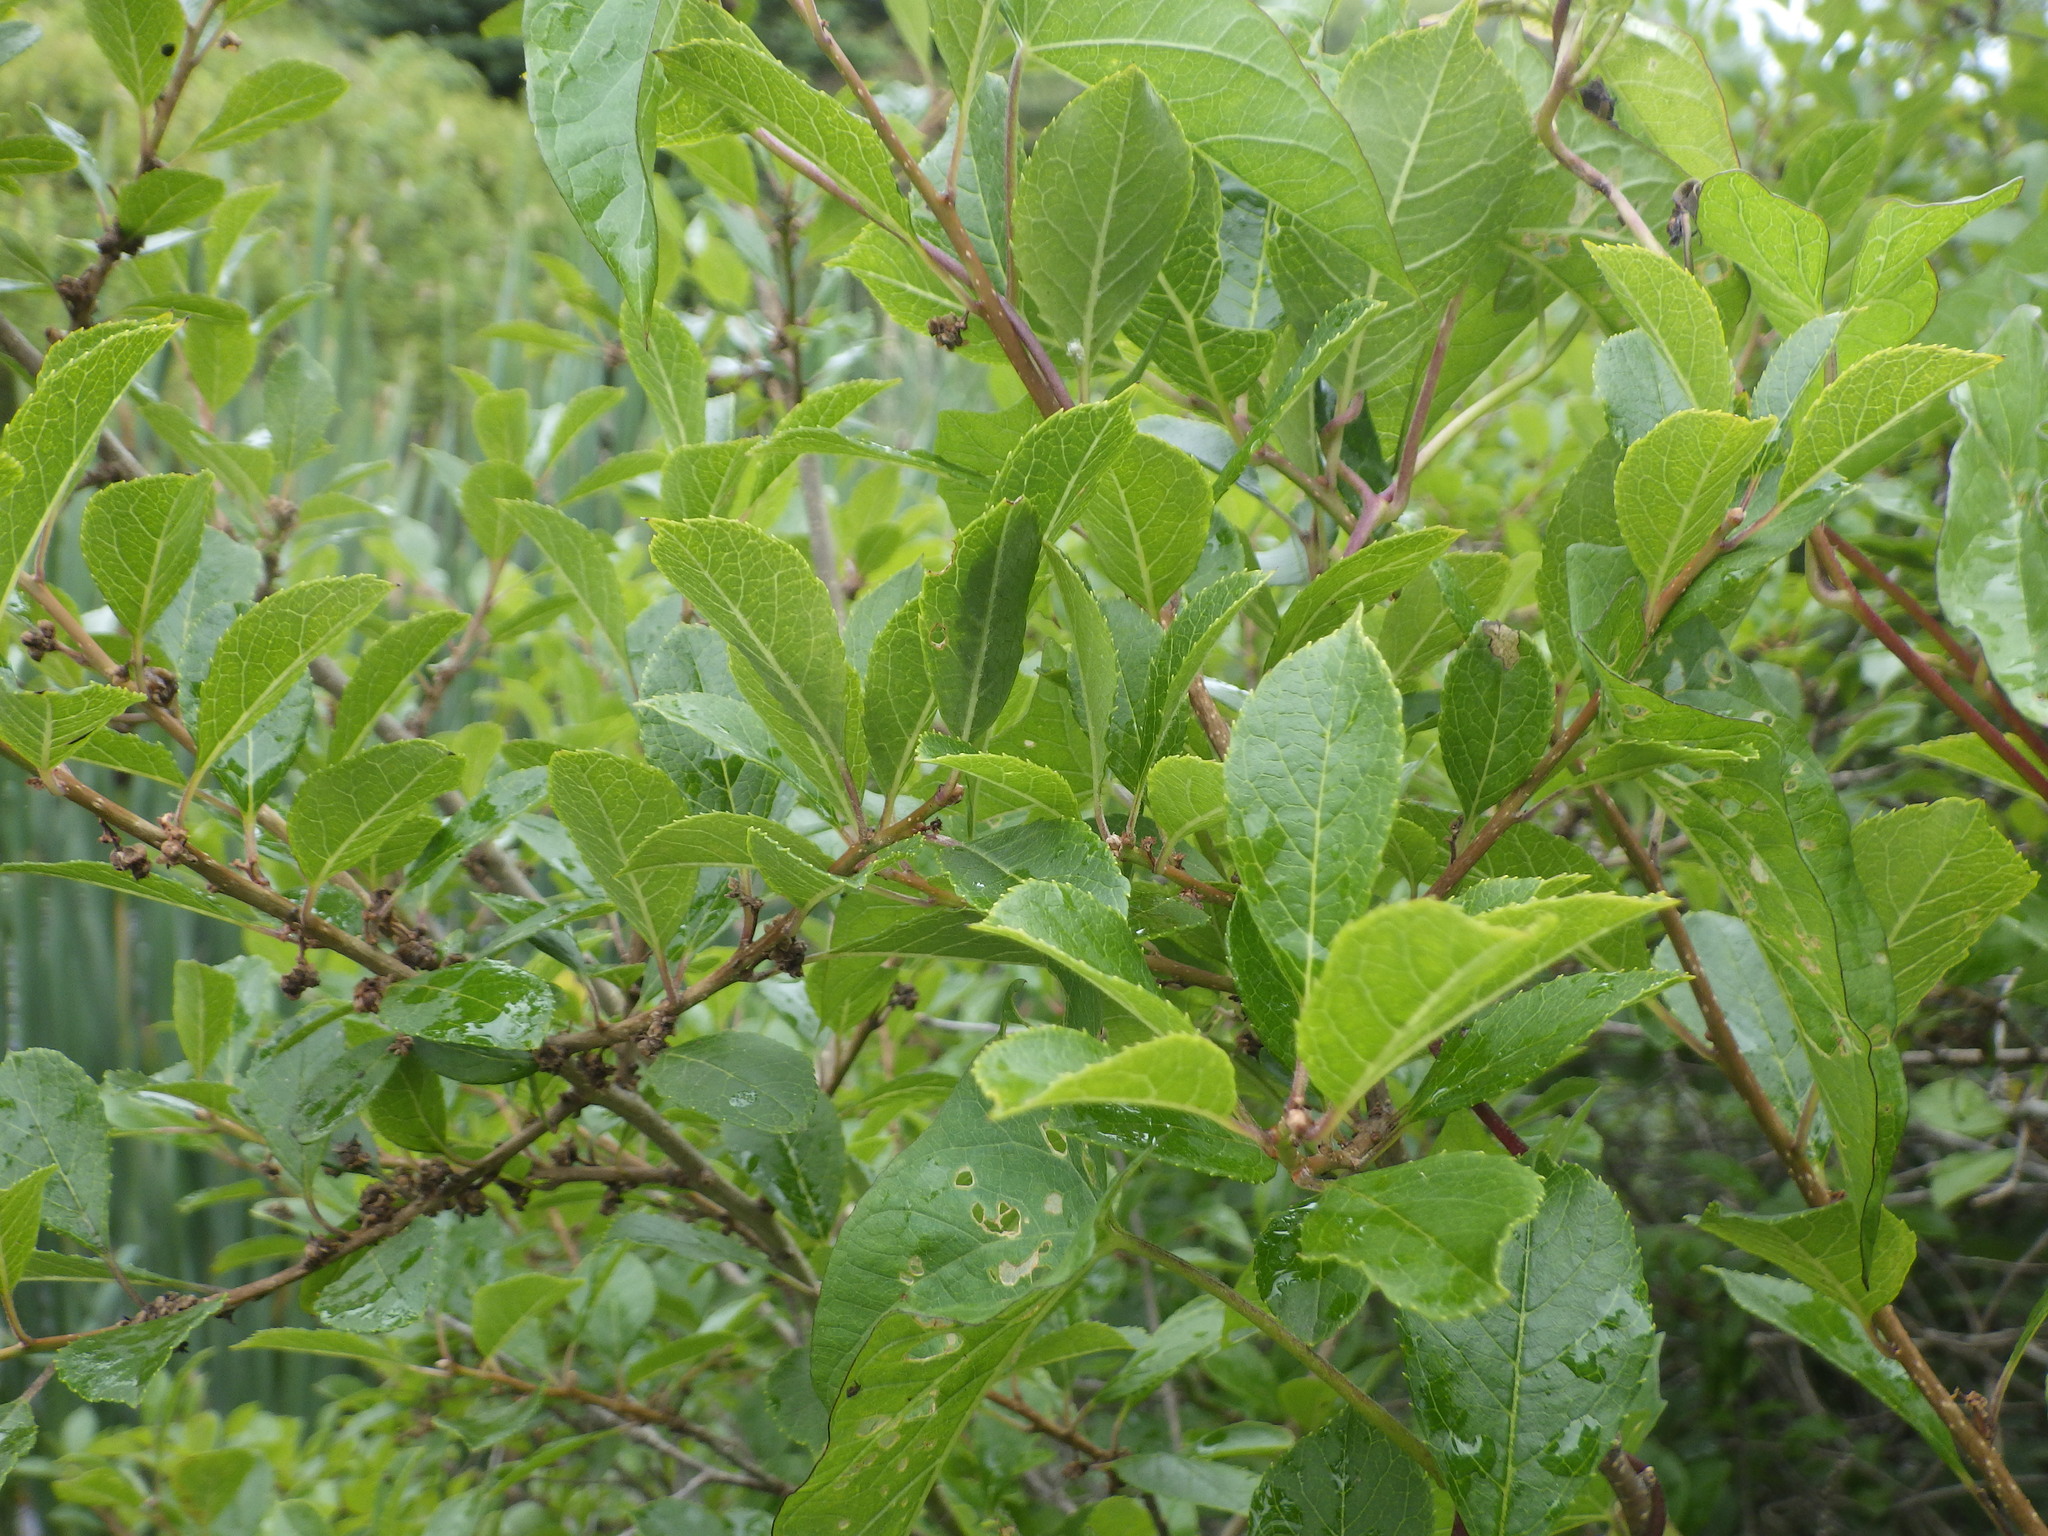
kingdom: Plantae
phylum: Tracheophyta
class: Magnoliopsida
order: Aquifoliales
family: Aquifoliaceae
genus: Ilex
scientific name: Ilex verticillata
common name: Virginia winterberry
